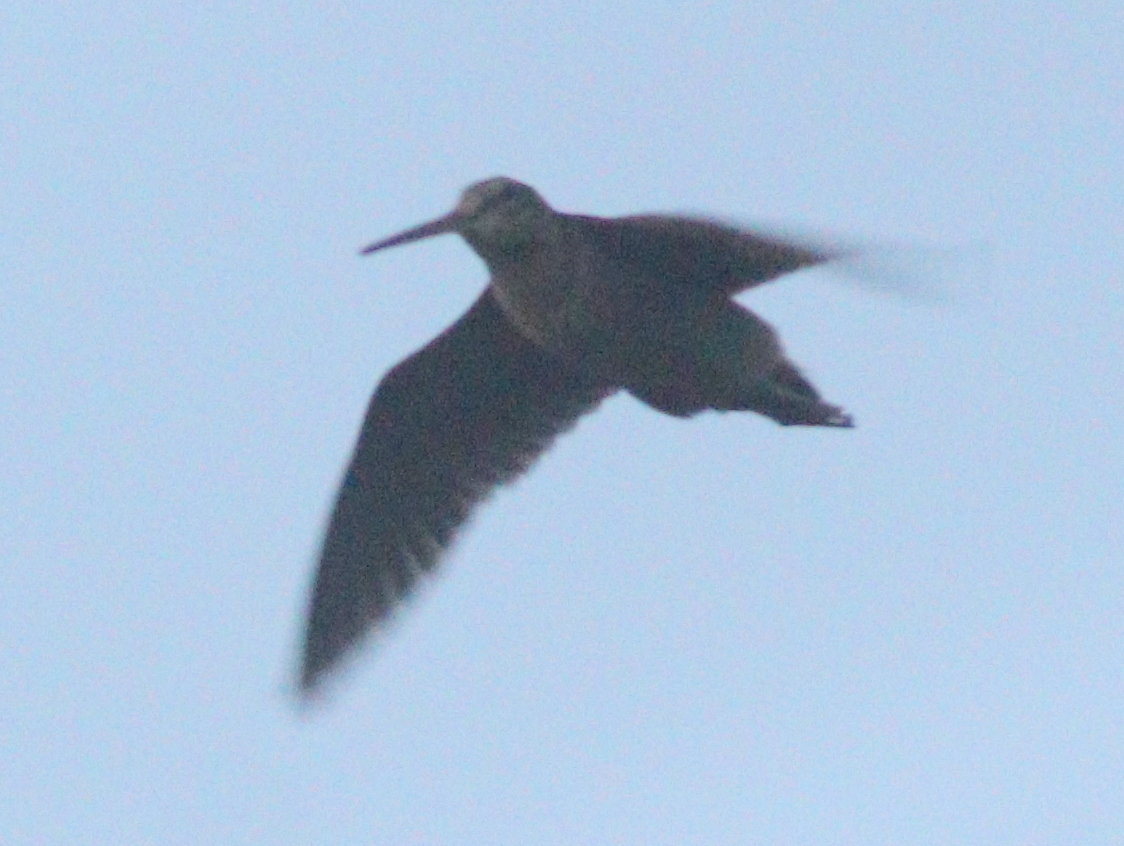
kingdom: Animalia
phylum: Chordata
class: Aves
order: Charadriiformes
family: Scolopacidae
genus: Scolopax
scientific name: Scolopax rusticola
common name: Eurasian woodcock
